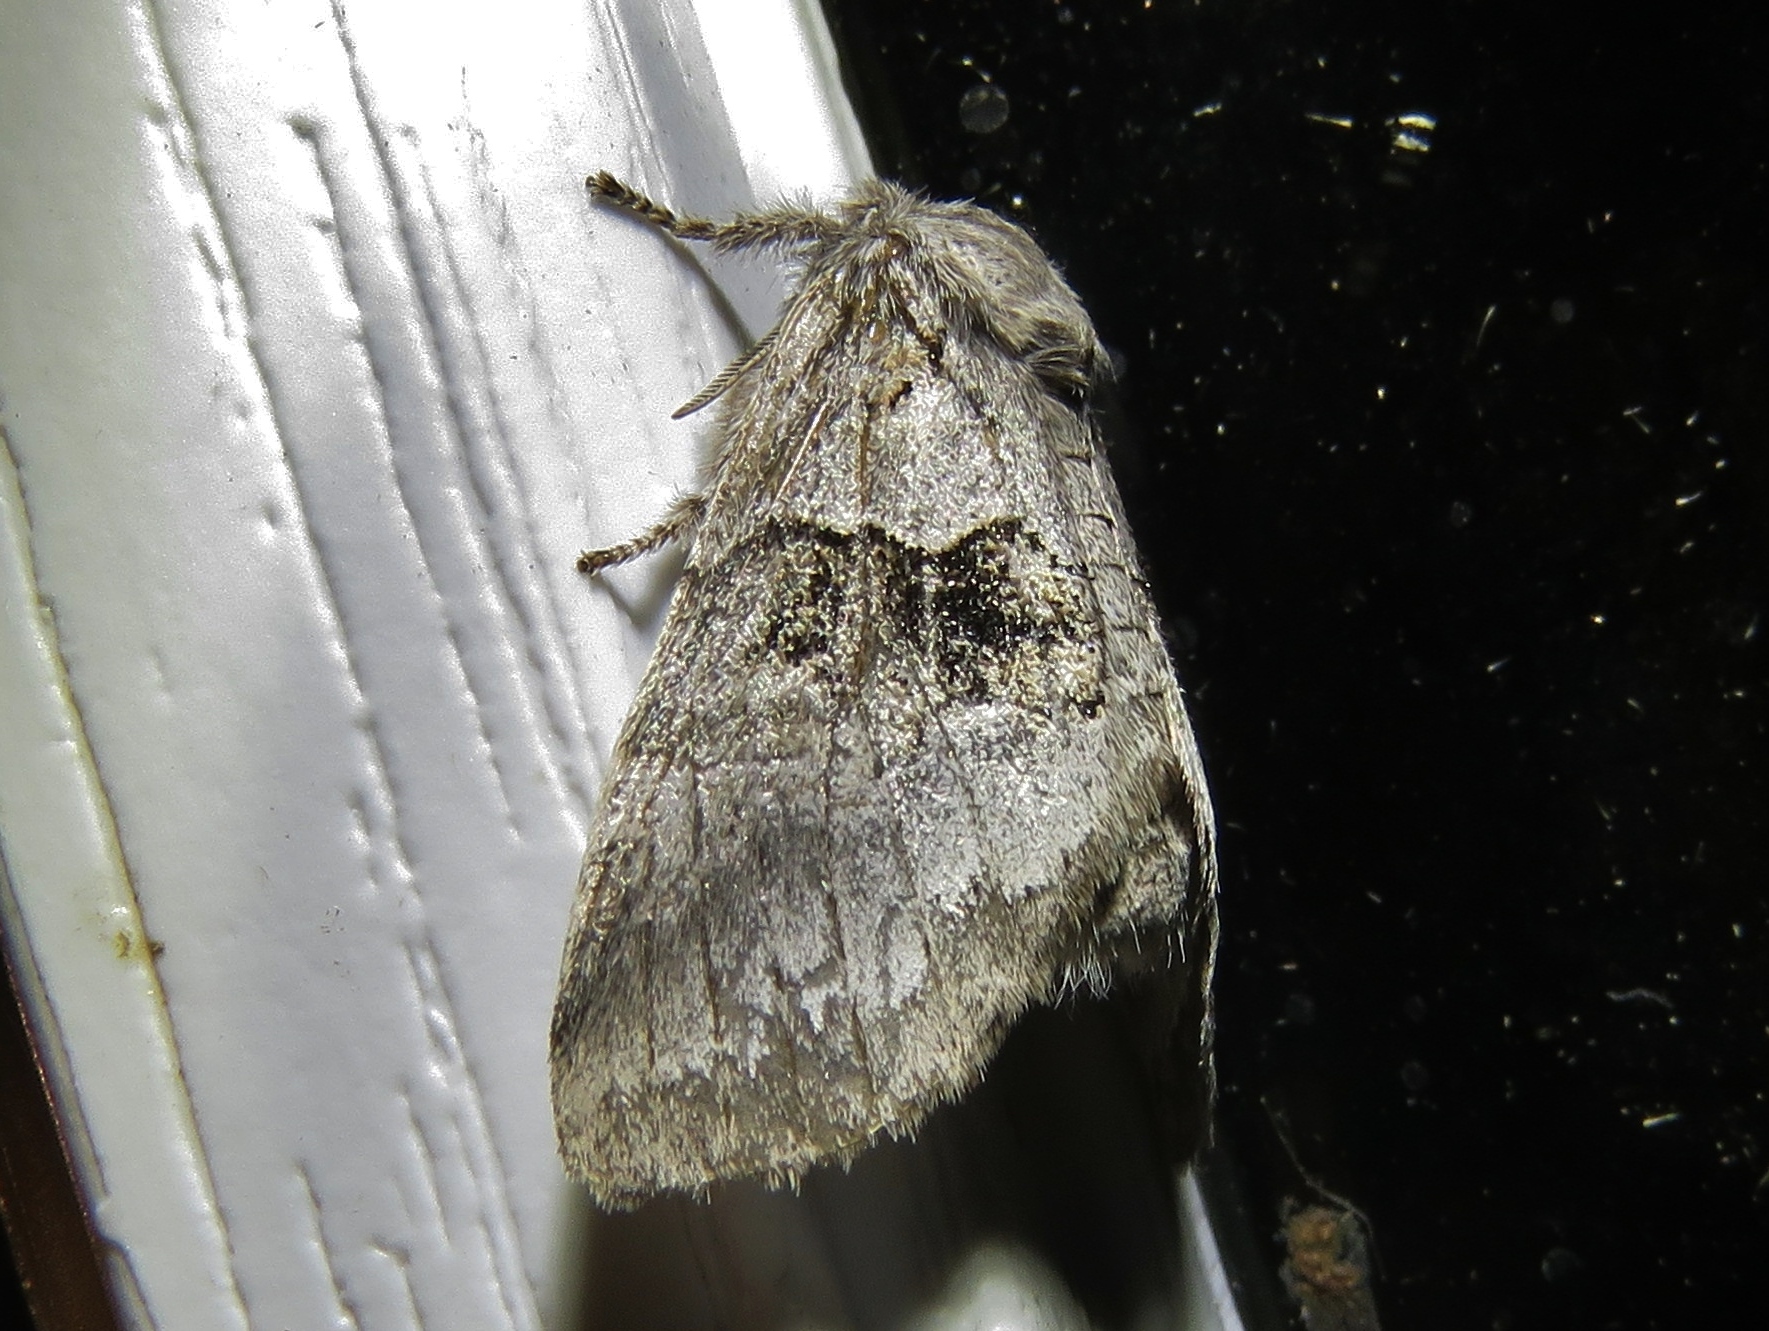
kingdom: Animalia
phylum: Arthropoda
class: Insecta
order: Lepidoptera
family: Notodontidae
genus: Gluphisia
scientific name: Gluphisia septentrionis
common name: Common gluphisia
